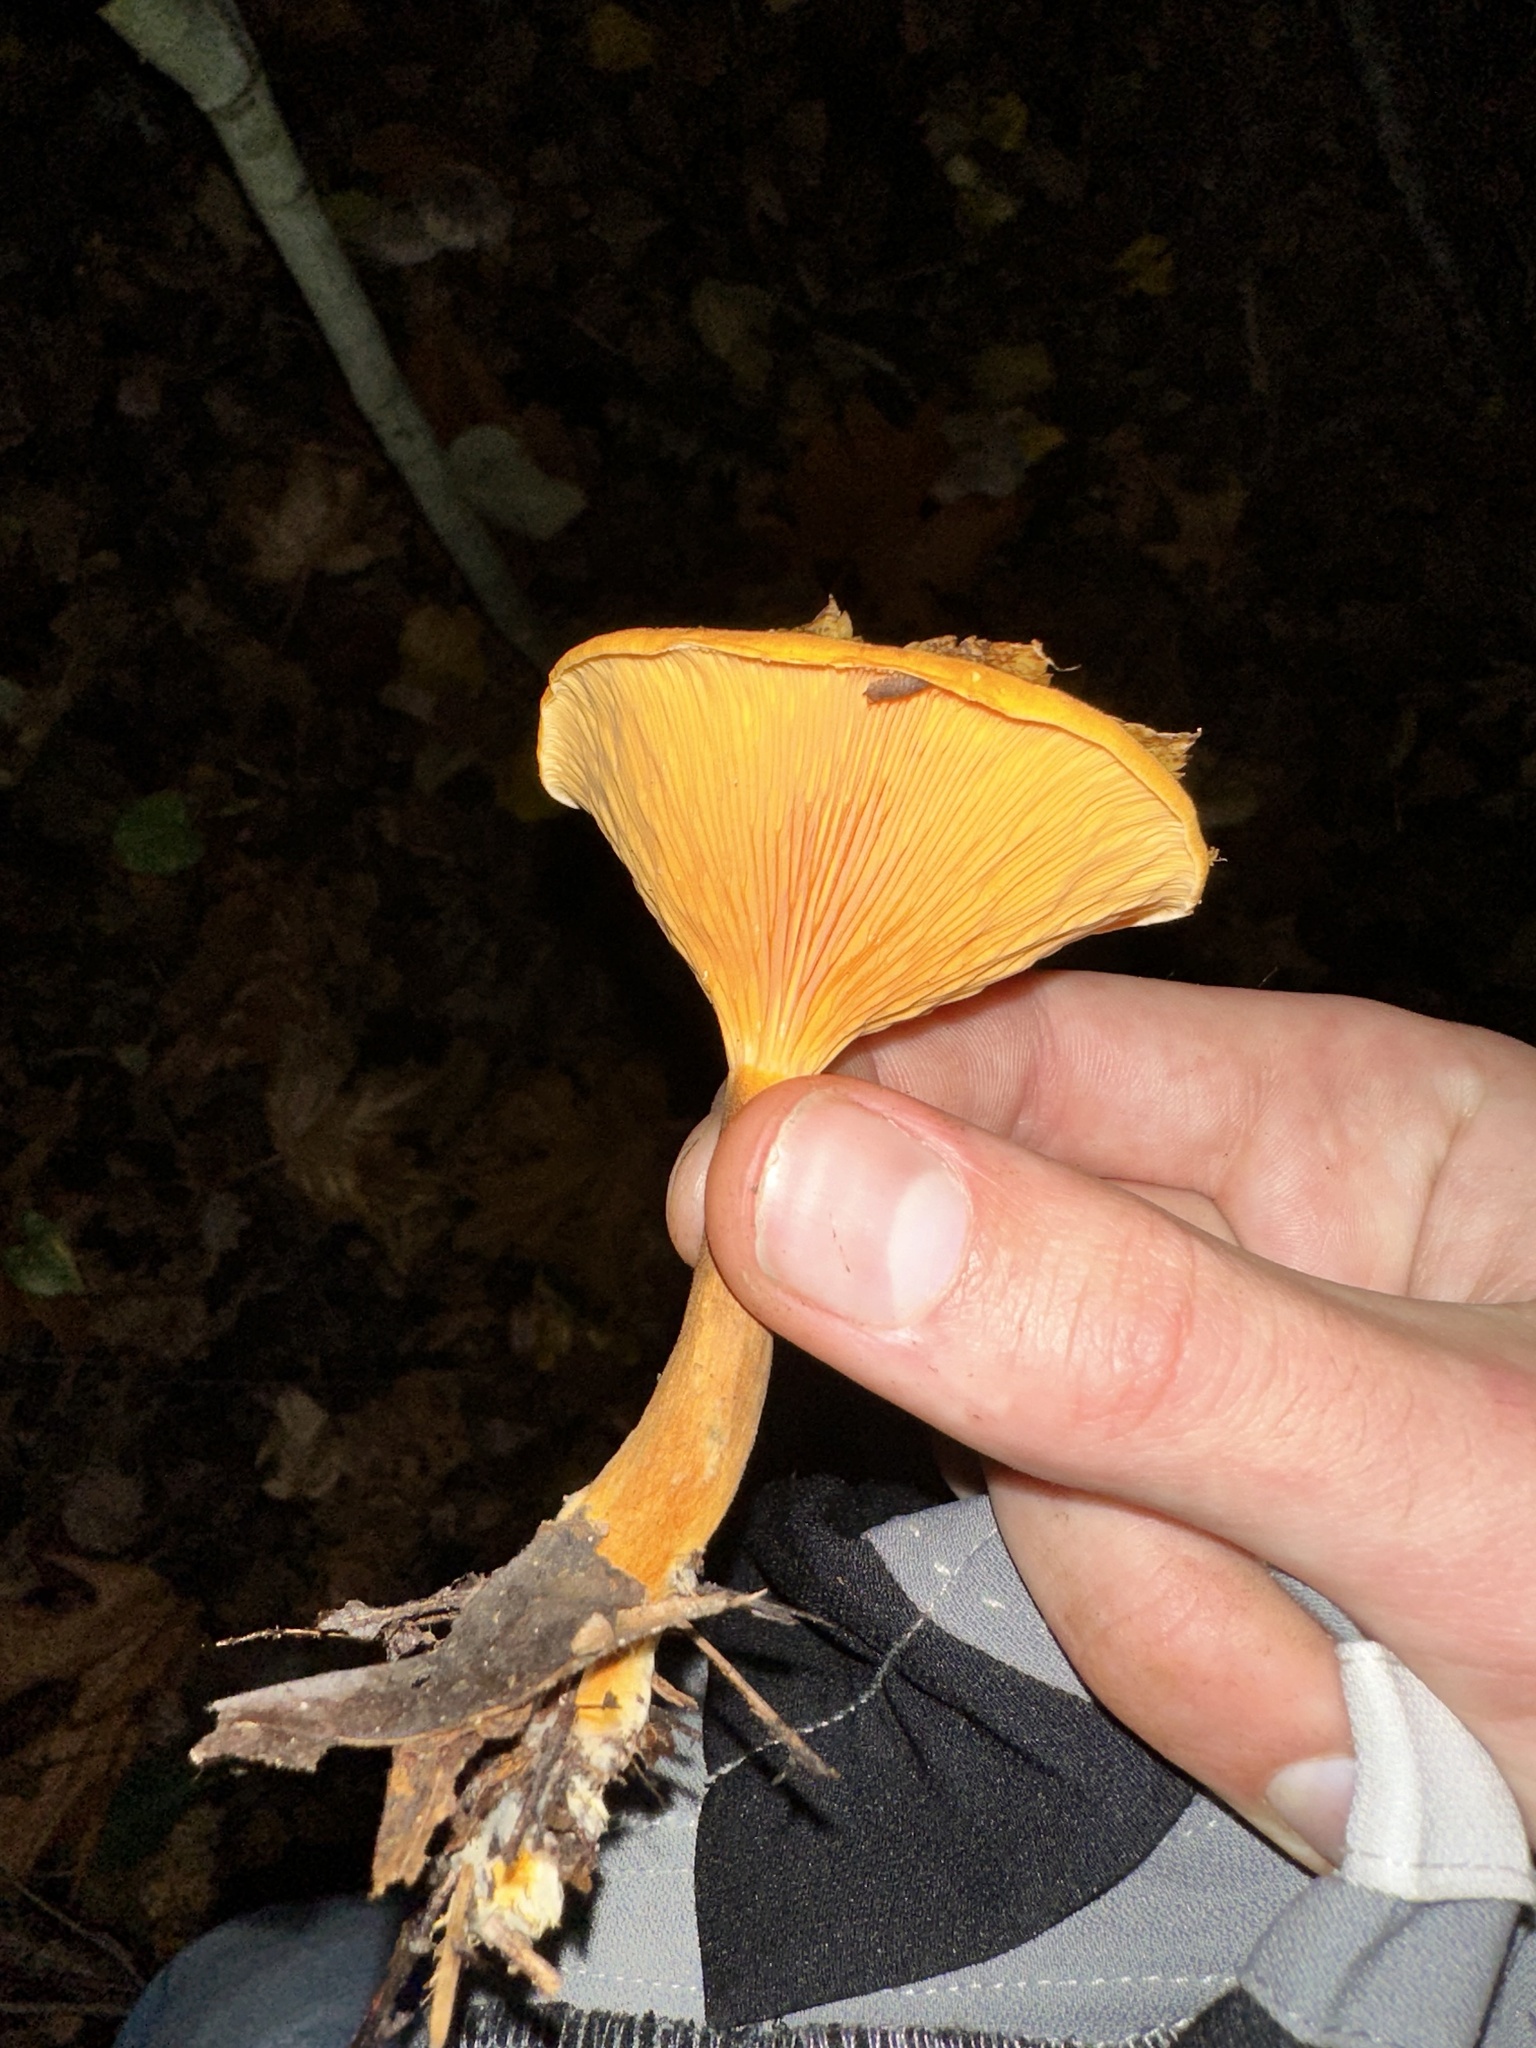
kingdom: Fungi
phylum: Basidiomycota
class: Agaricomycetes
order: Boletales
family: Hygrophoropsidaceae
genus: Hygrophoropsis
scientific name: Hygrophoropsis aurantiaca
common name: False chanterelle
